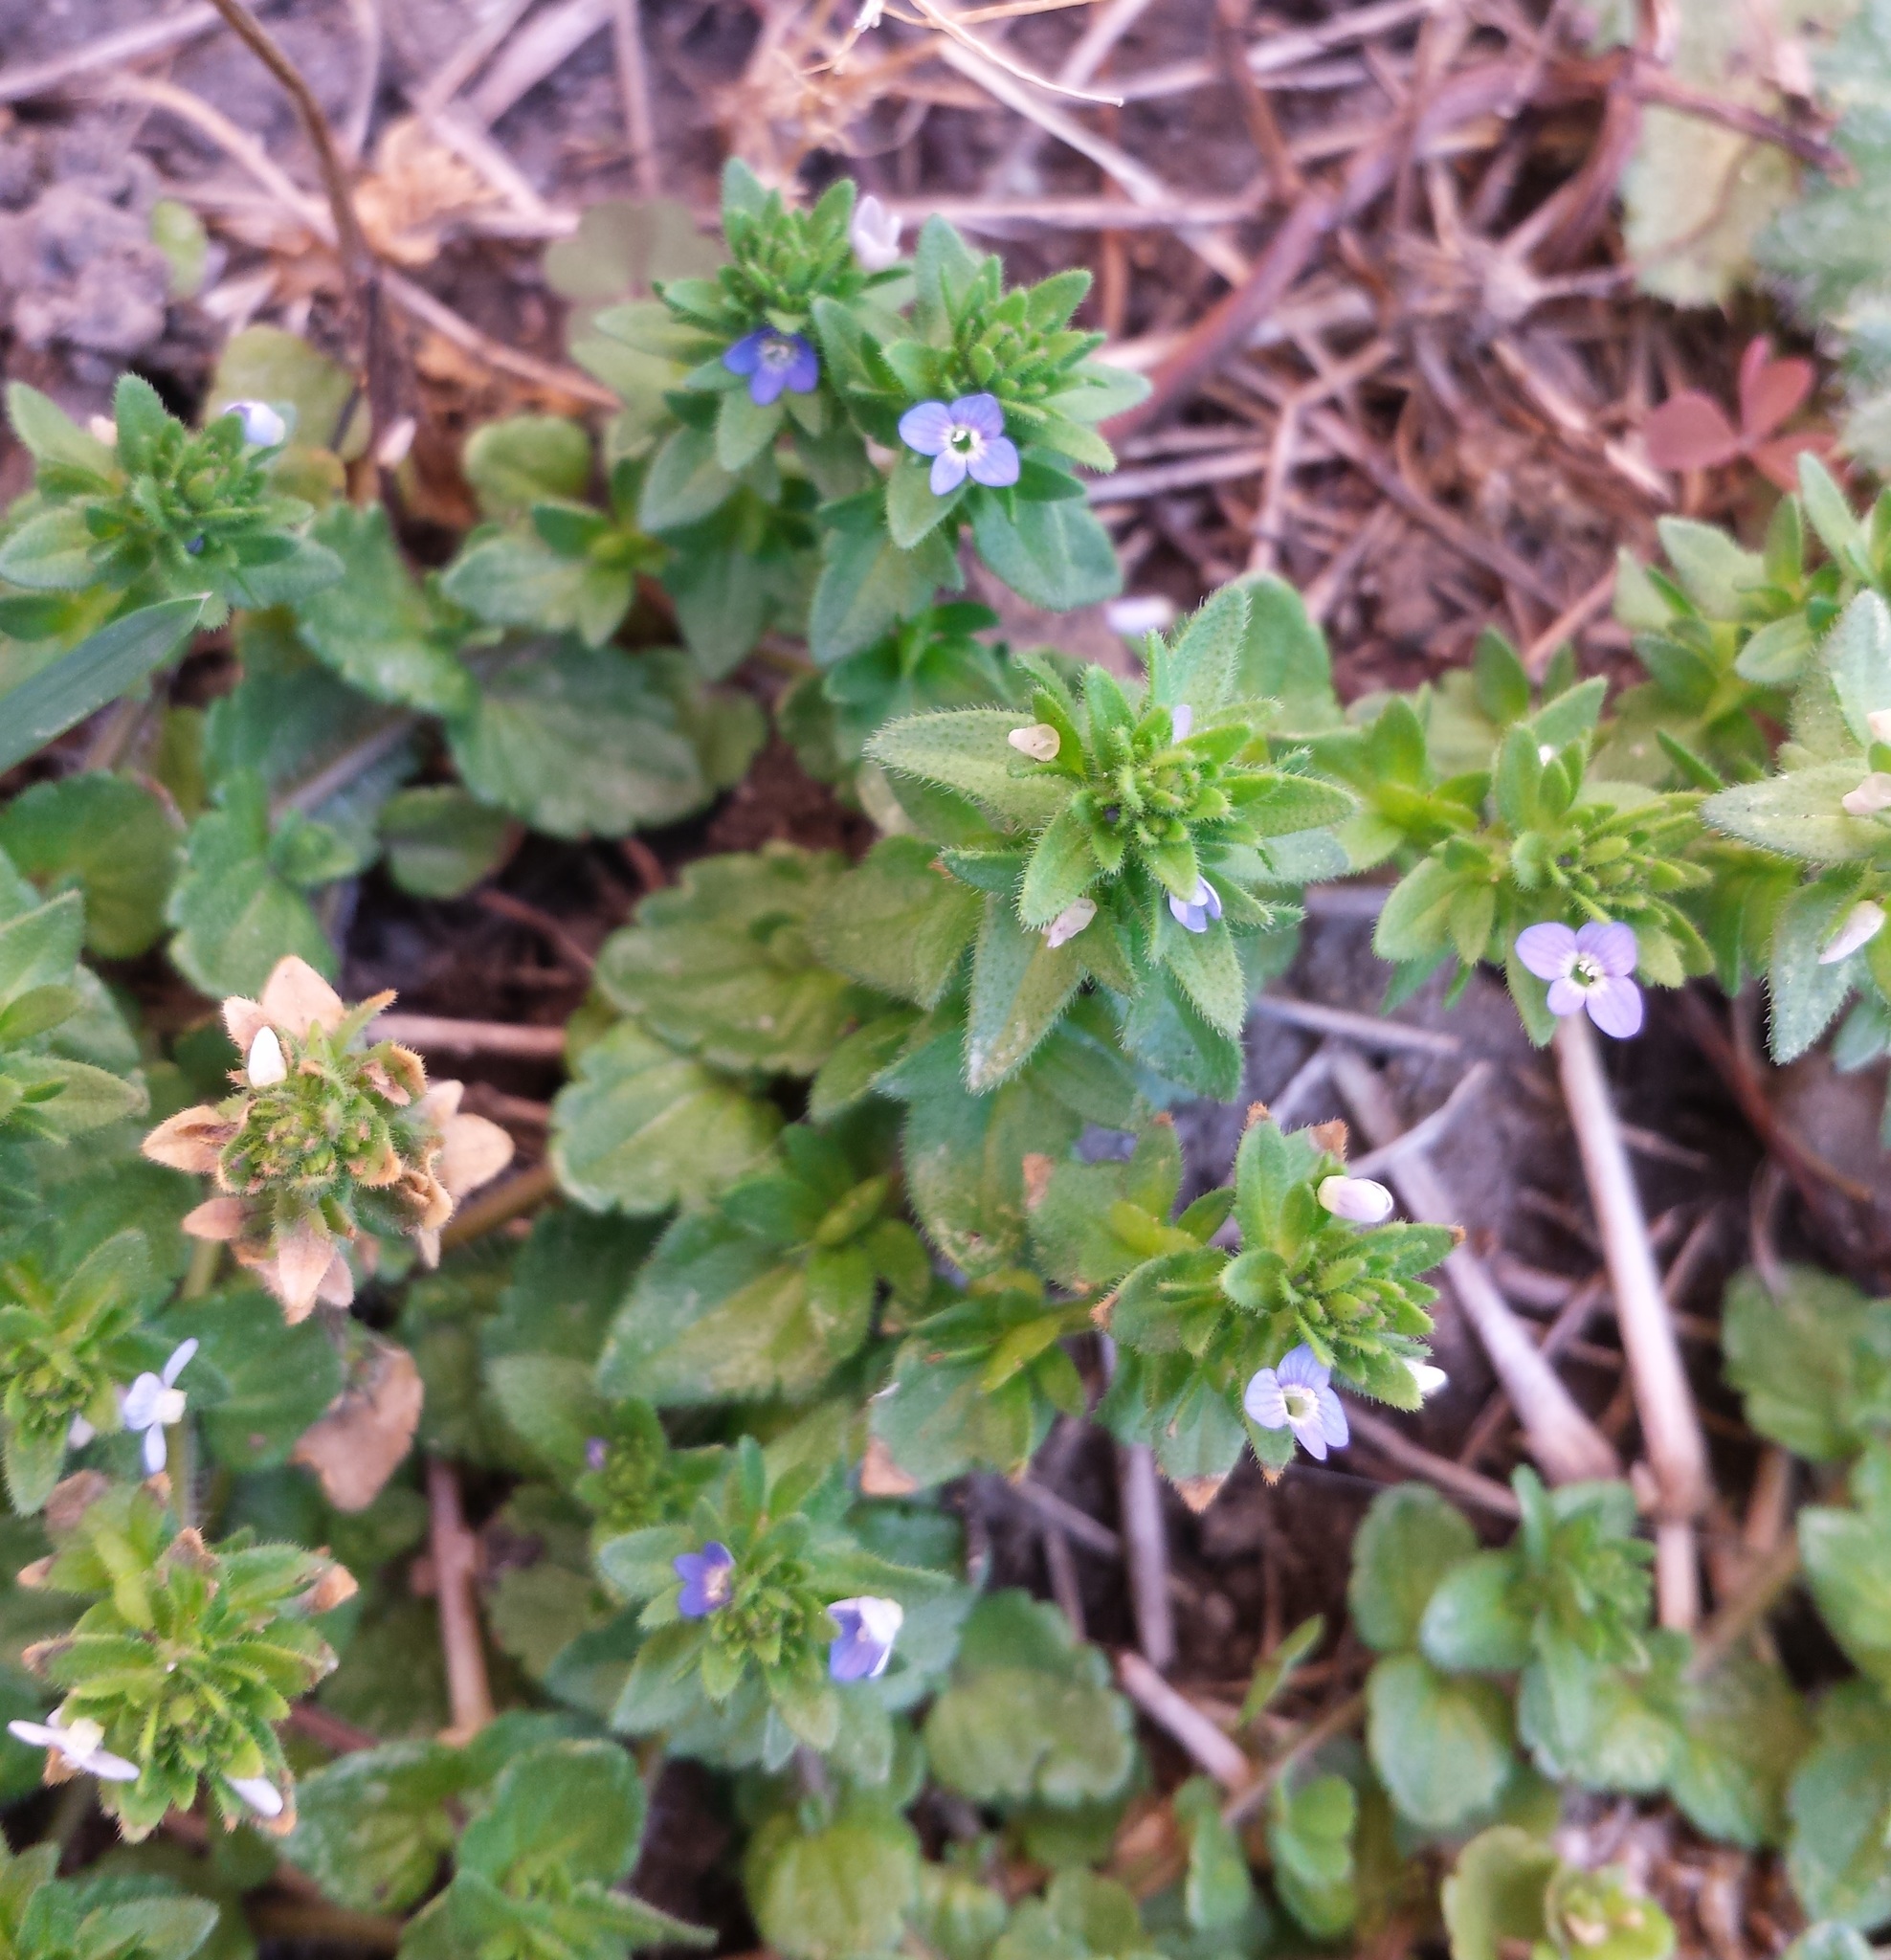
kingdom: Plantae
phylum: Tracheophyta
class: Magnoliopsida
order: Lamiales
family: Plantaginaceae
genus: Veronica
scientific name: Veronica arvensis
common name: Corn speedwell
